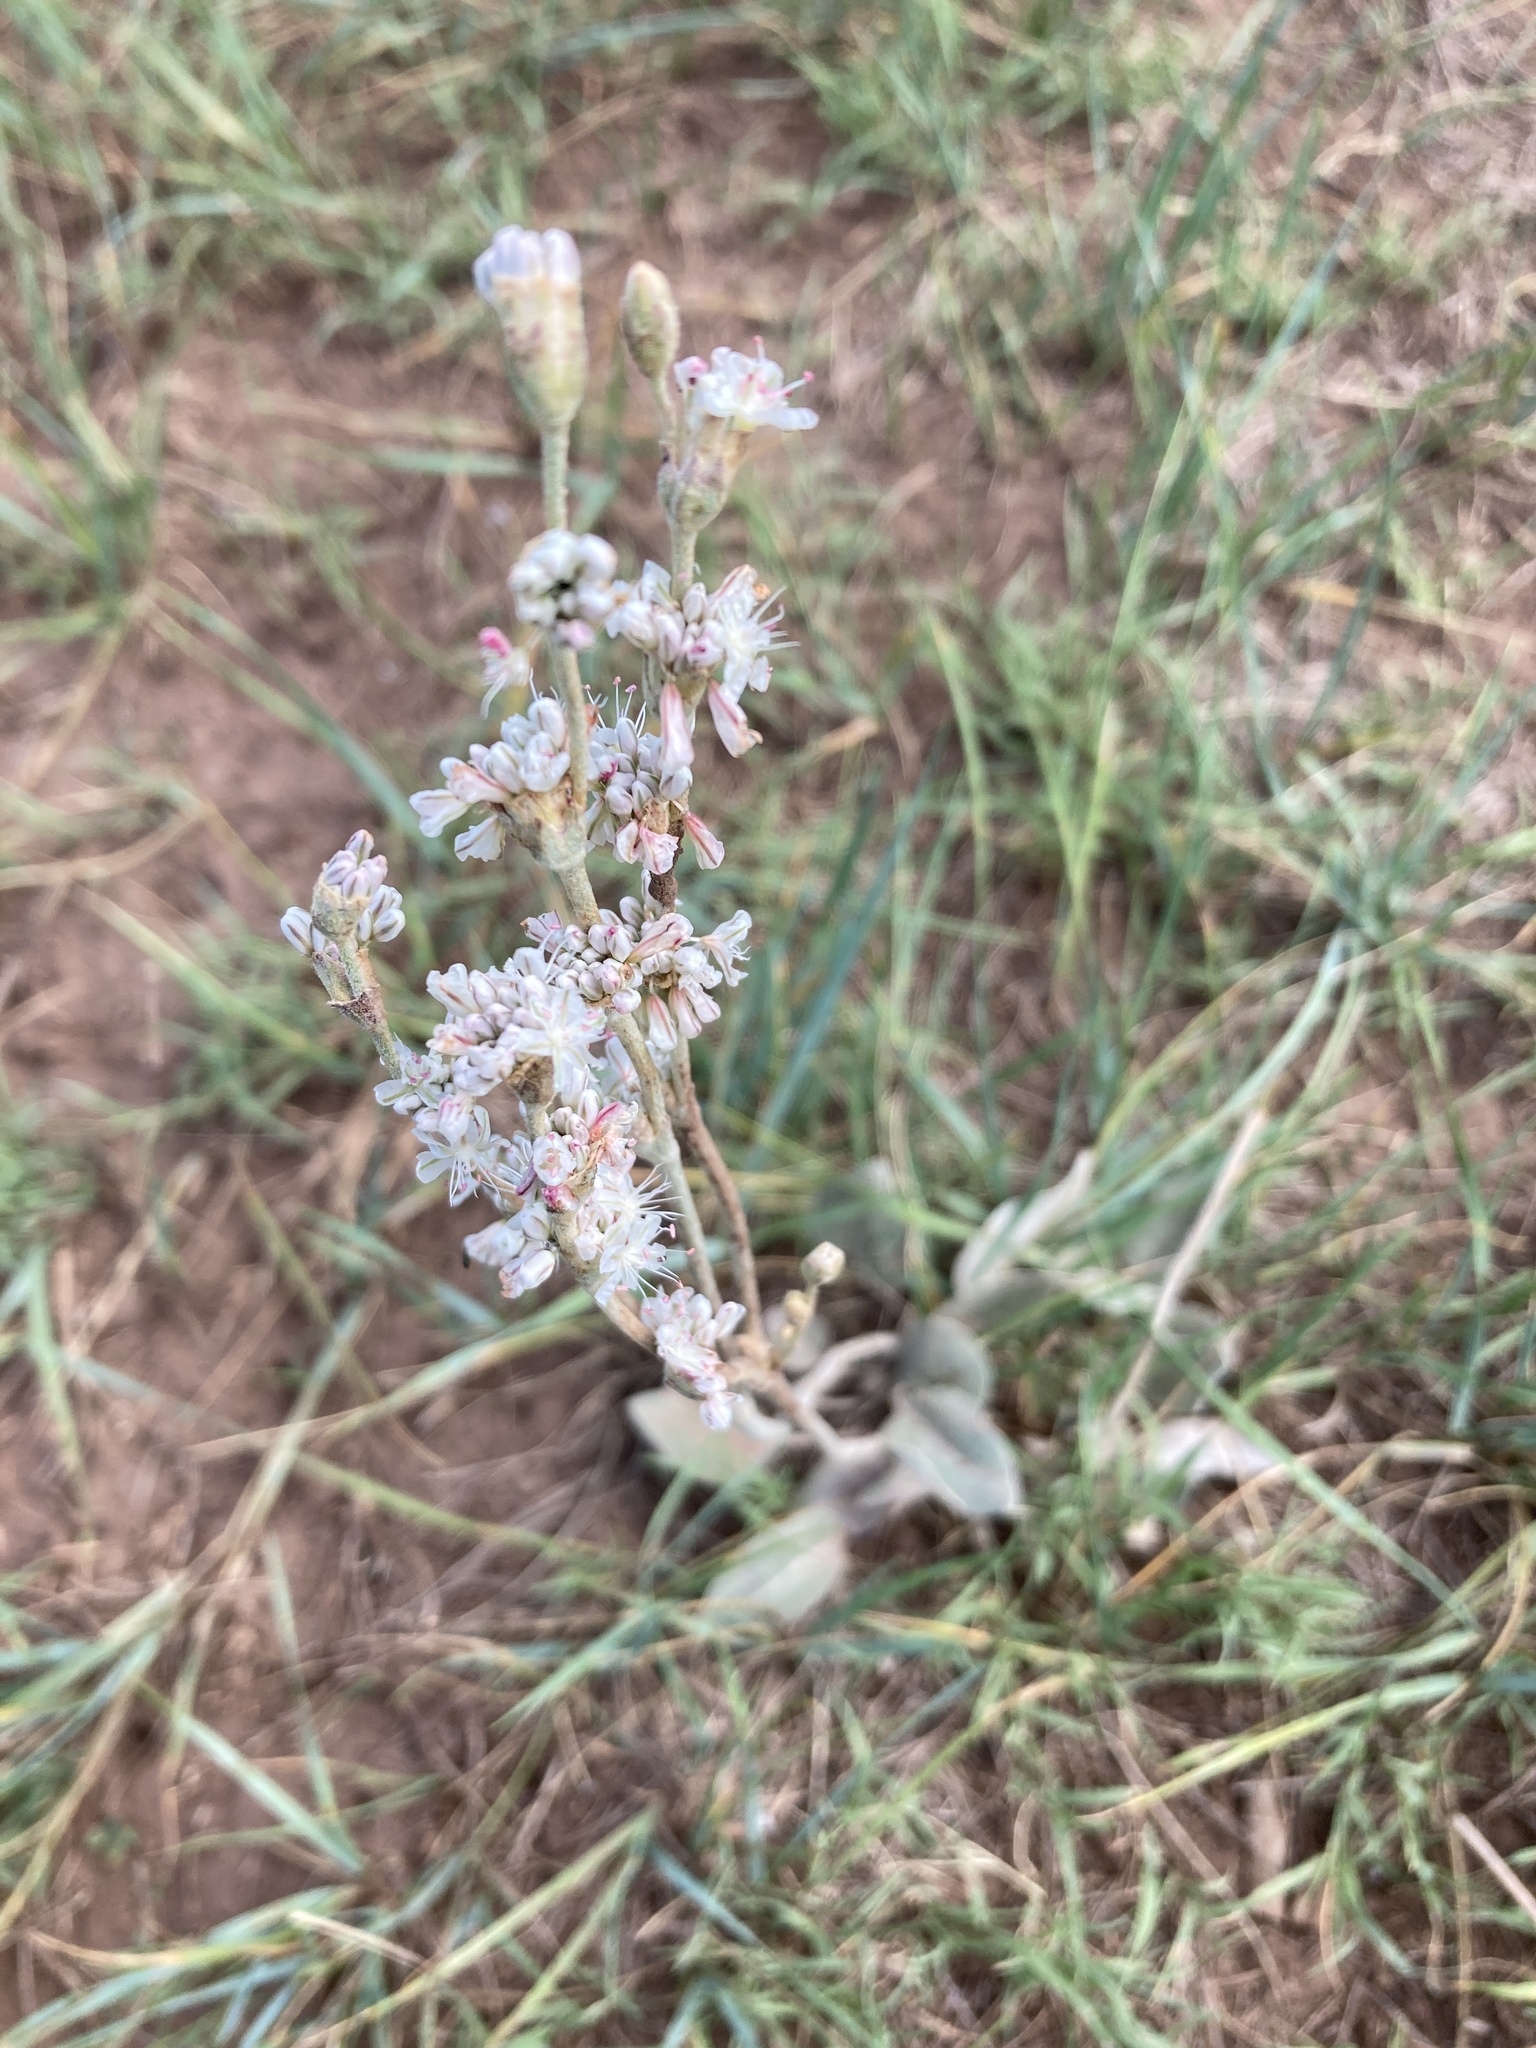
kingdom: Plantae
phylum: Tracheophyta
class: Magnoliopsida
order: Caryophyllales
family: Polygonaceae
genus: Eriogonum
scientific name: Eriogonum racemosum
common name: Redroot wild buckwheat
